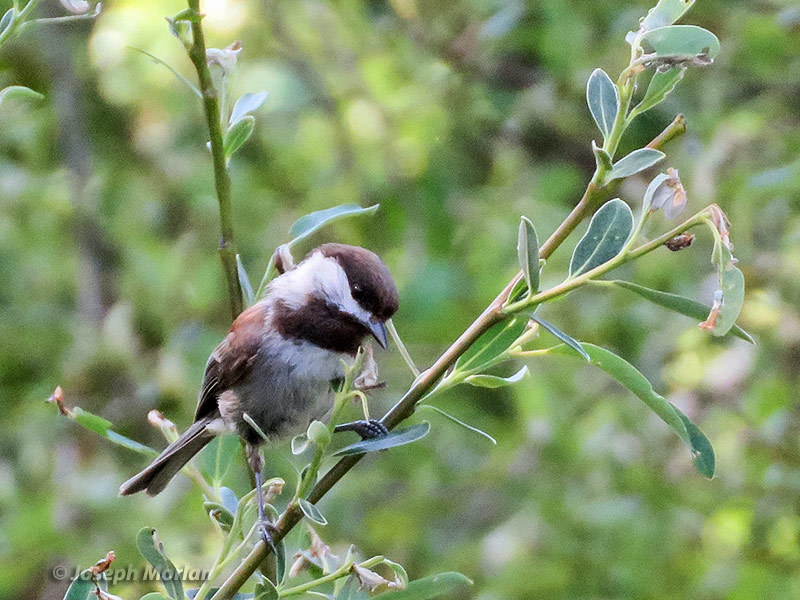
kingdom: Animalia
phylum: Chordata
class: Aves
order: Passeriformes
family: Paridae
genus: Poecile
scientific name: Poecile rufescens
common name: Chestnut-backed chickadee
